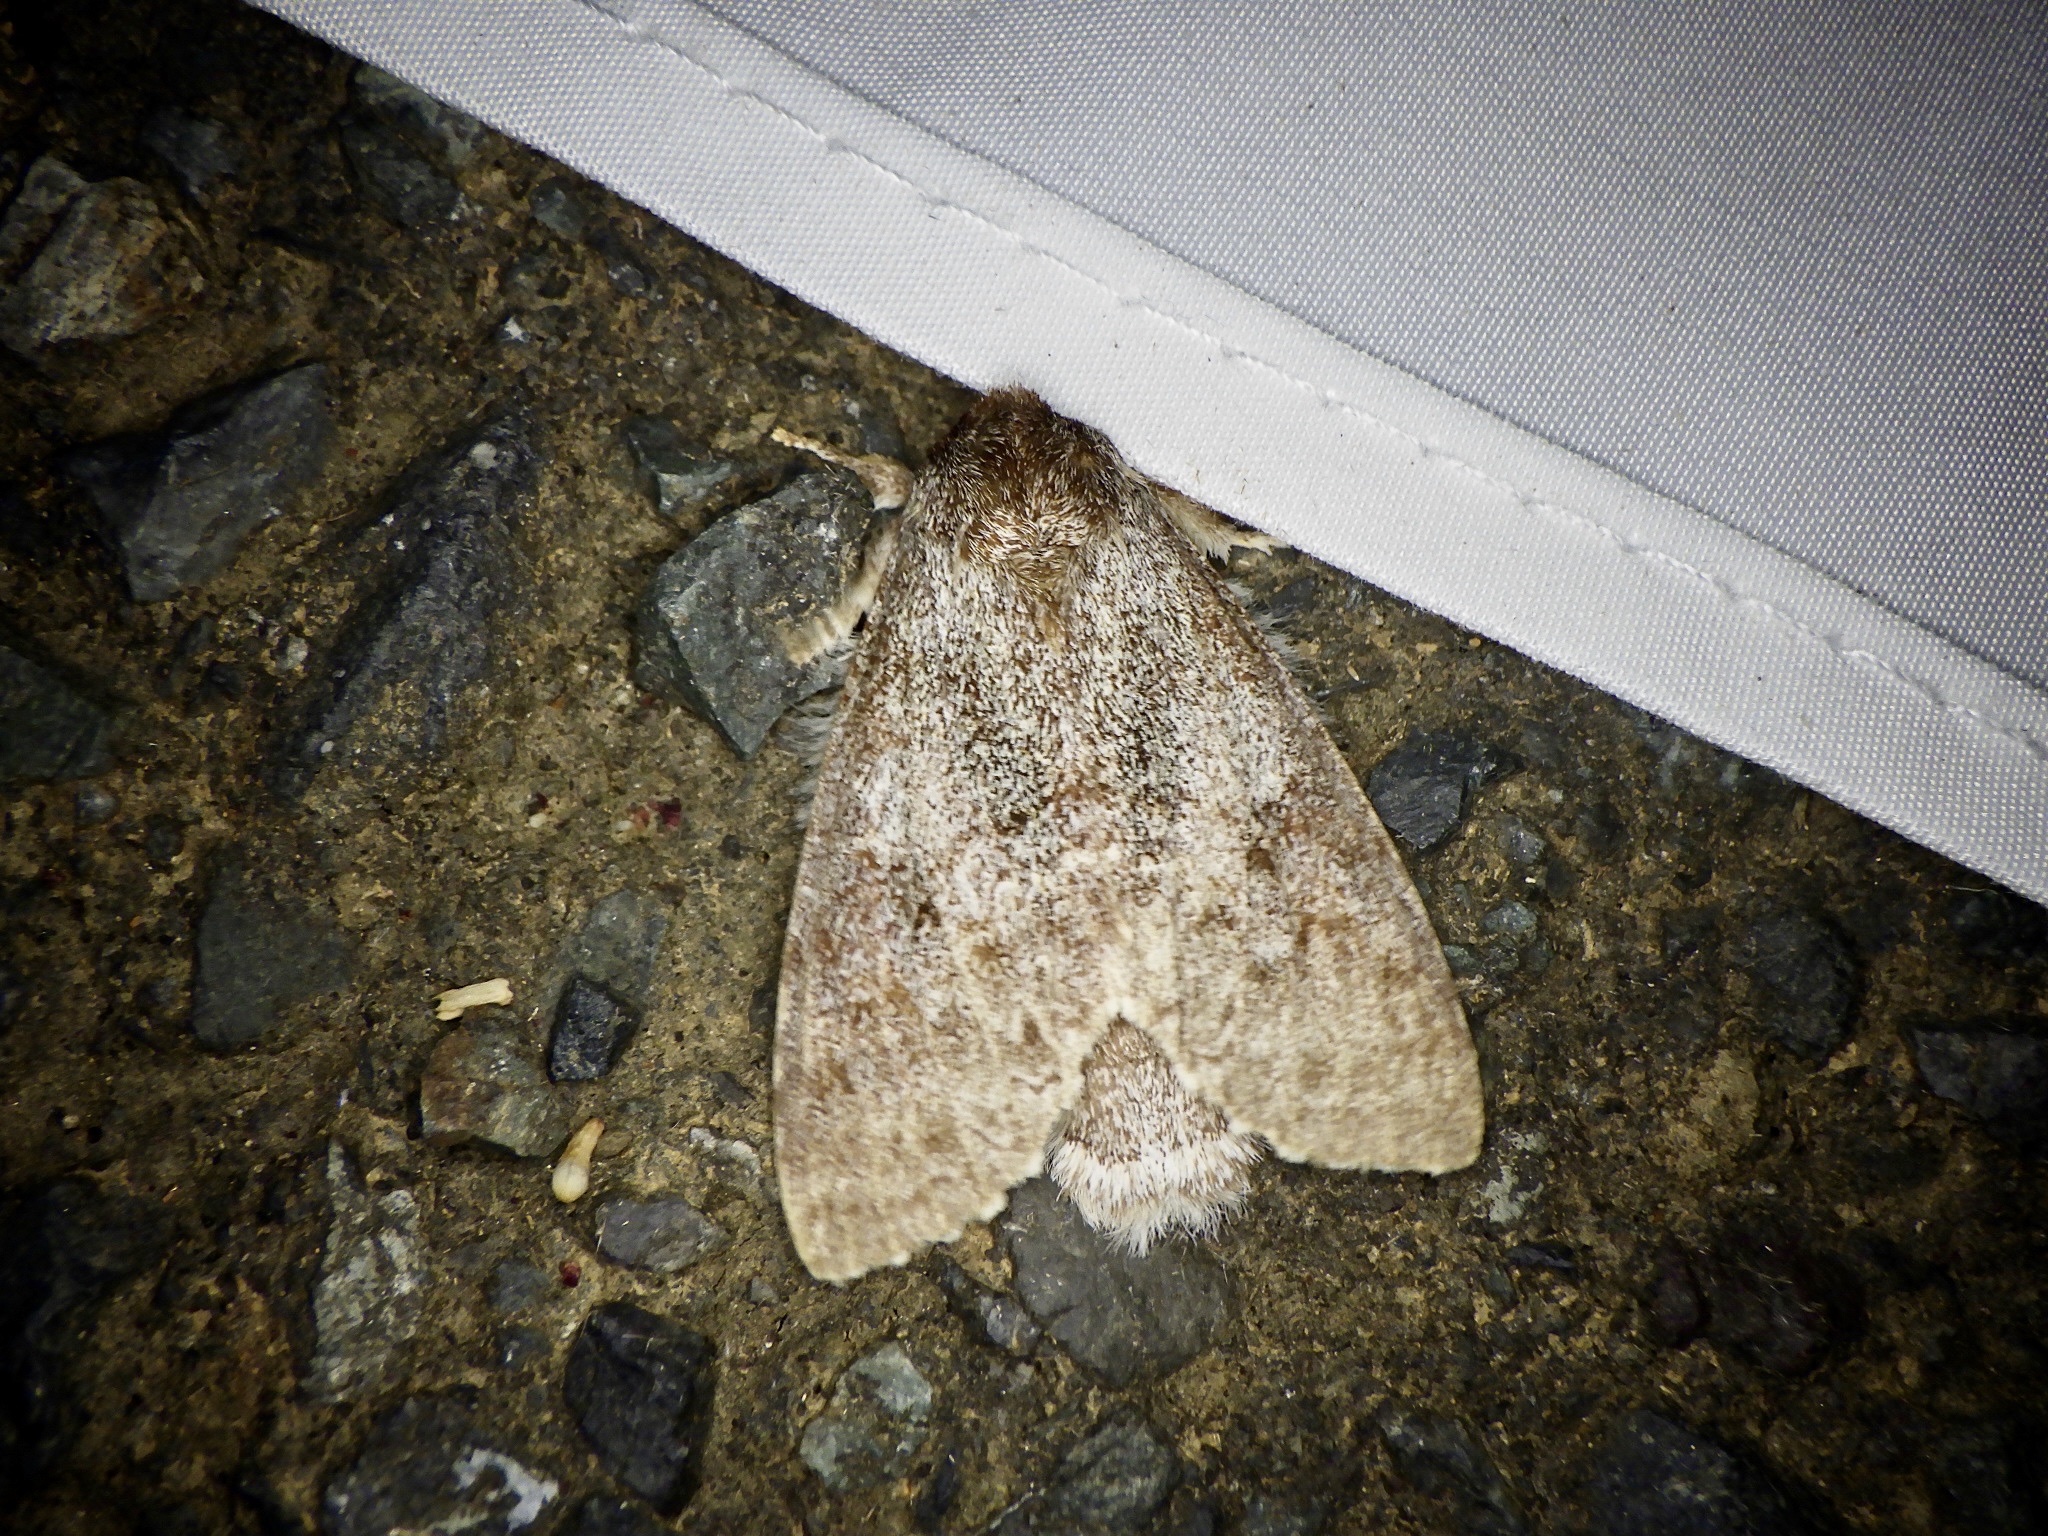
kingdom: Animalia
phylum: Arthropoda
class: Insecta
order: Lepidoptera
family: Notodontidae
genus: Mesophalera
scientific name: Mesophalera sigmata
